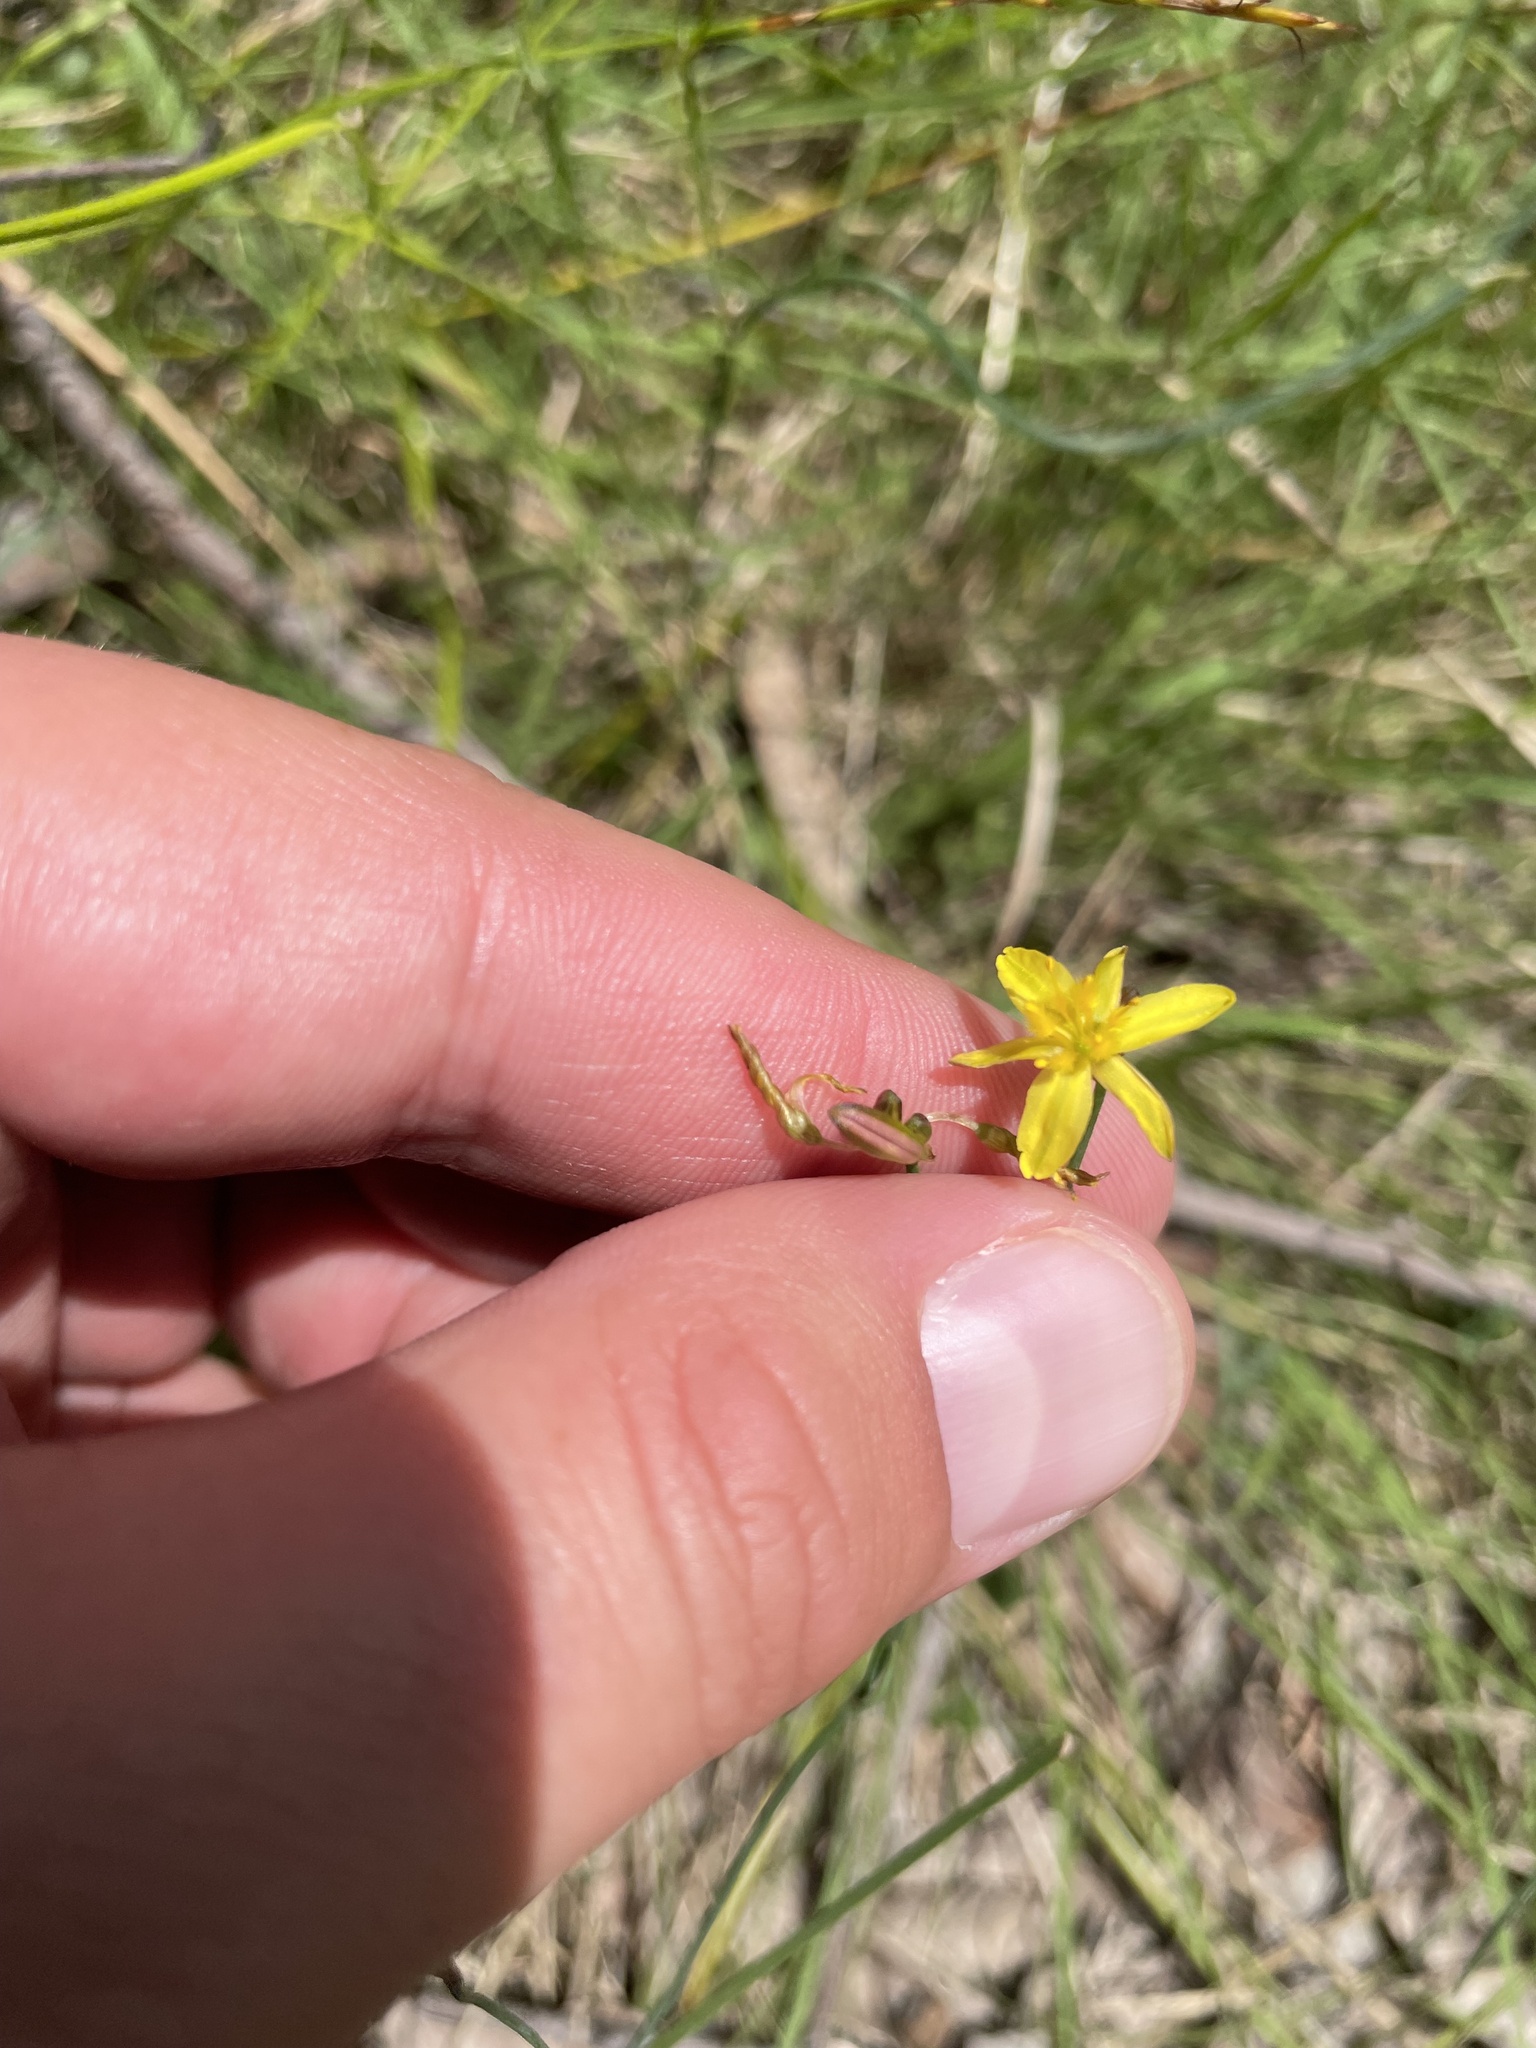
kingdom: Plantae
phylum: Tracheophyta
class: Liliopsida
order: Asparagales
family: Asphodelaceae
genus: Tricoryne
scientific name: Tricoryne elatior
